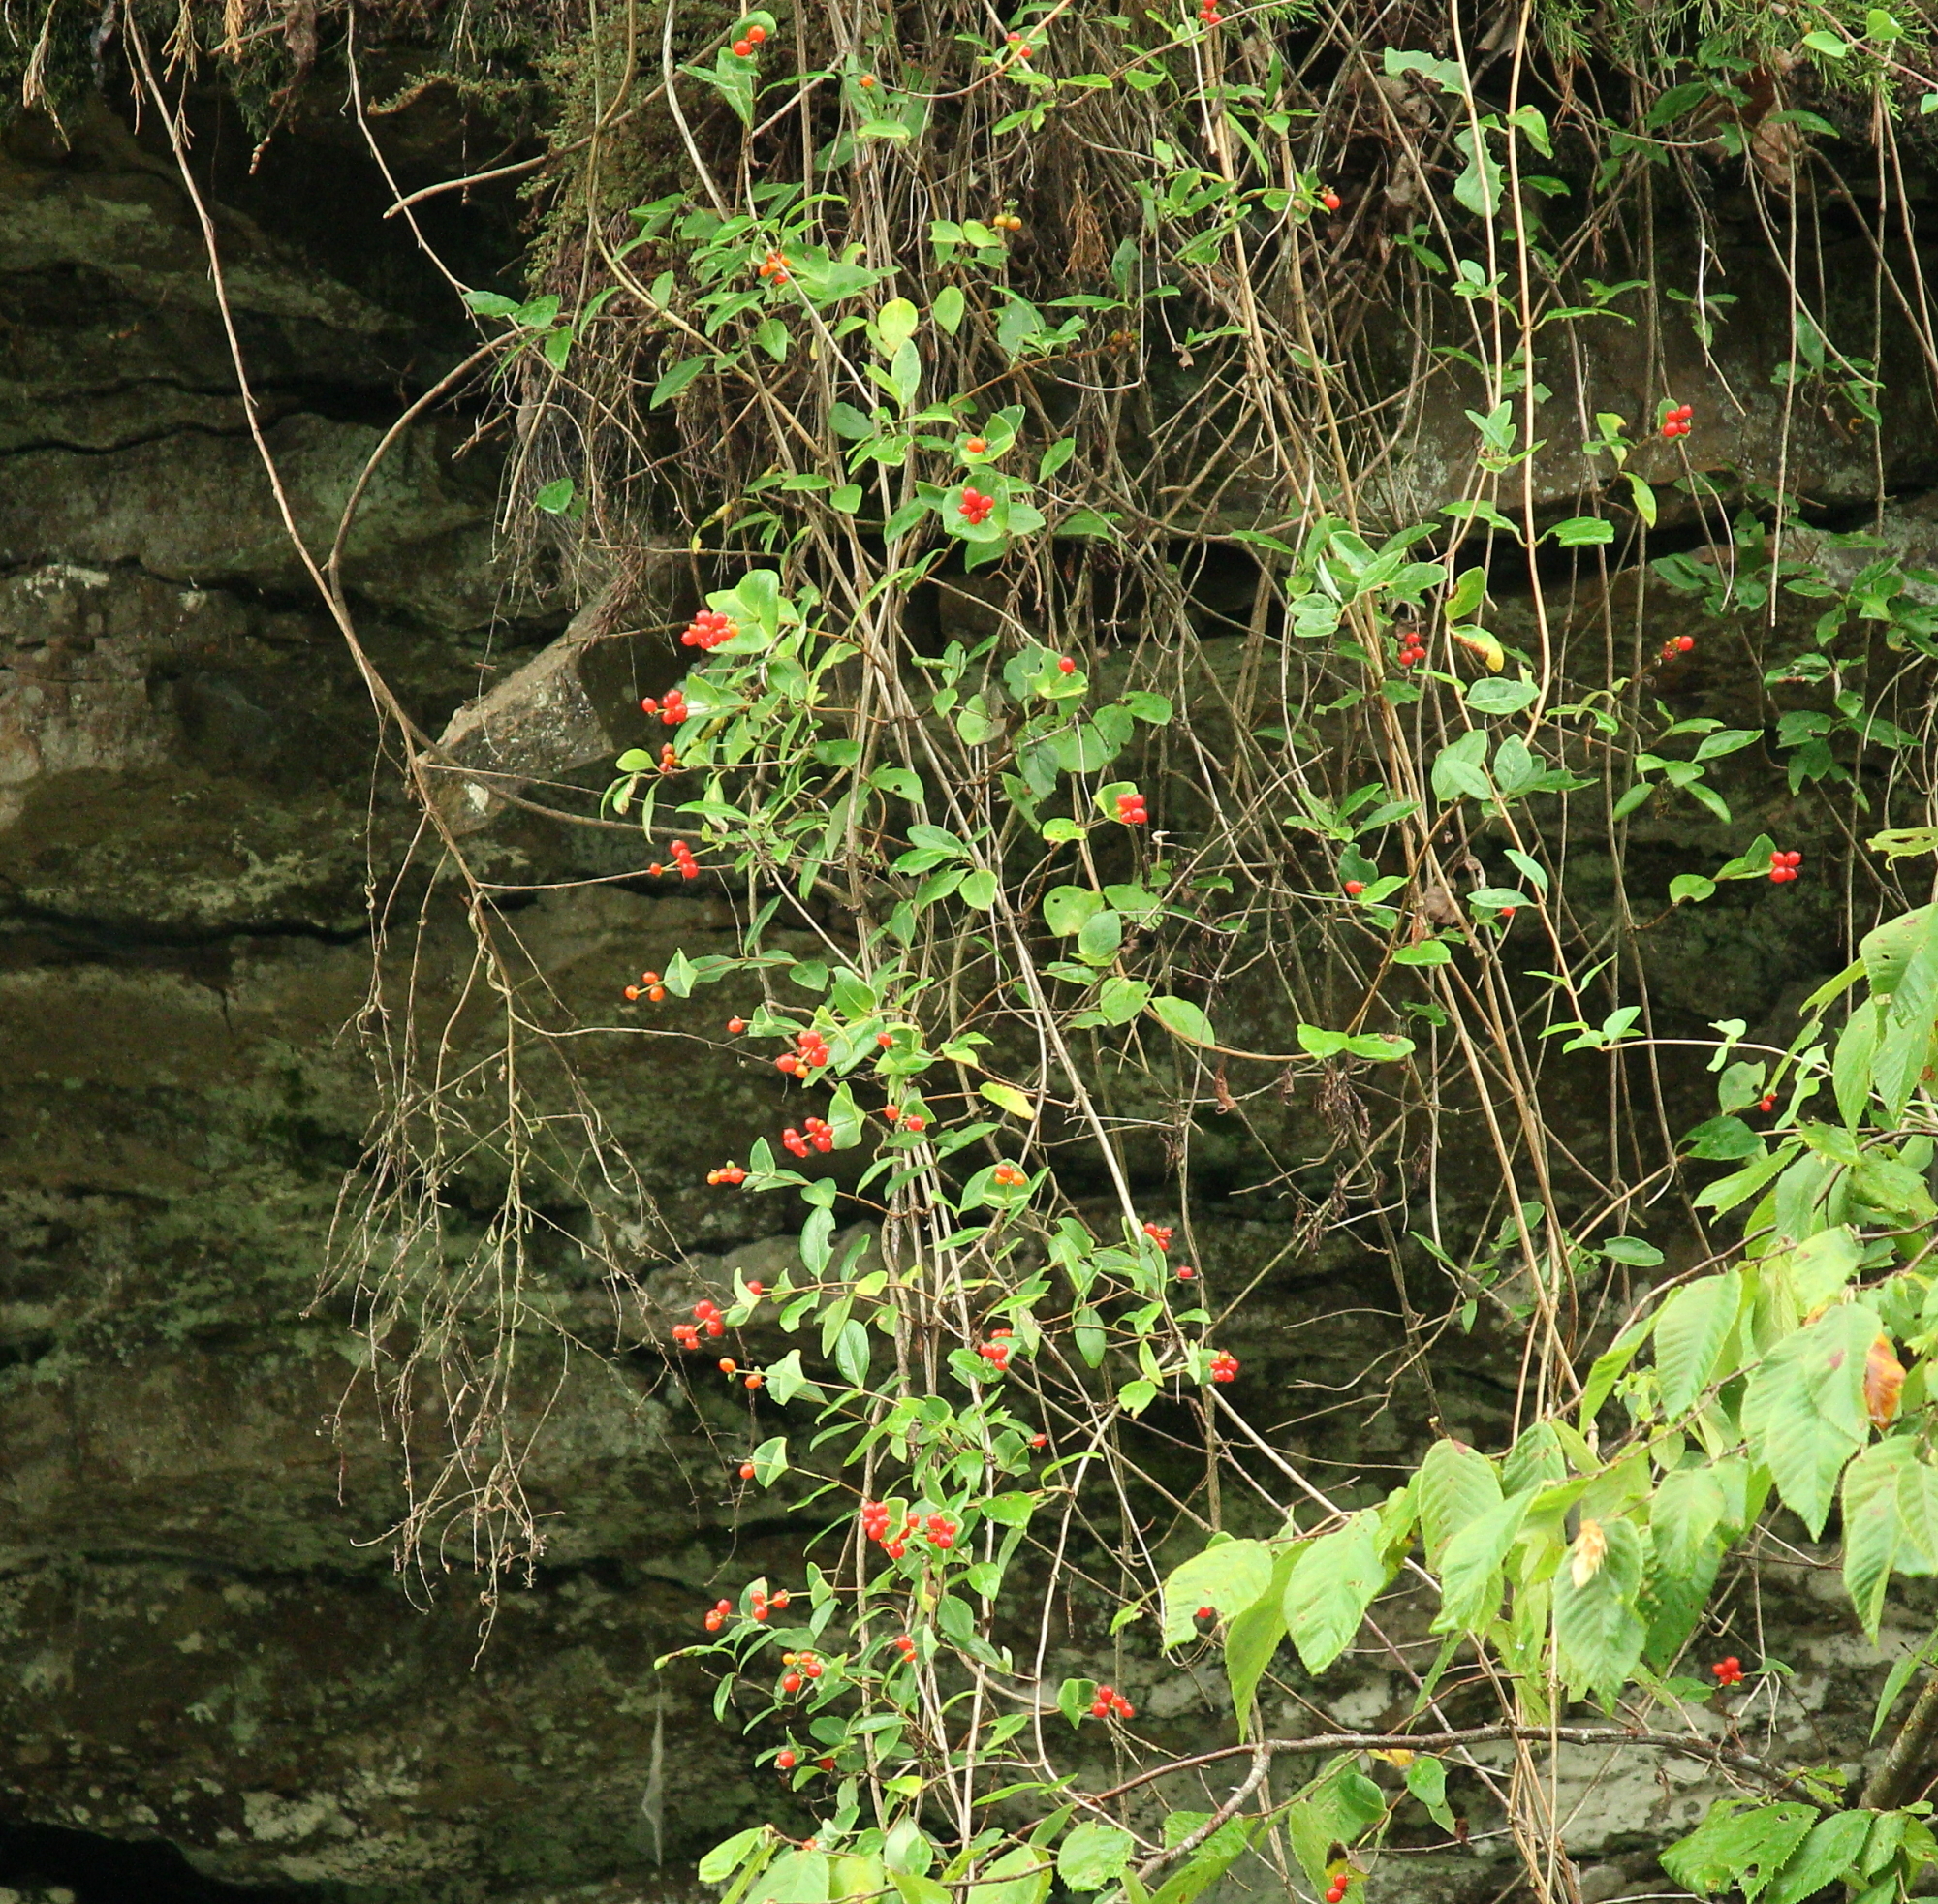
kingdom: Plantae
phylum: Tracheophyta
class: Magnoliopsida
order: Dipsacales
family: Caprifoliaceae
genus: Lonicera
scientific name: Lonicera sempervirens
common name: Coral honeysuckle
